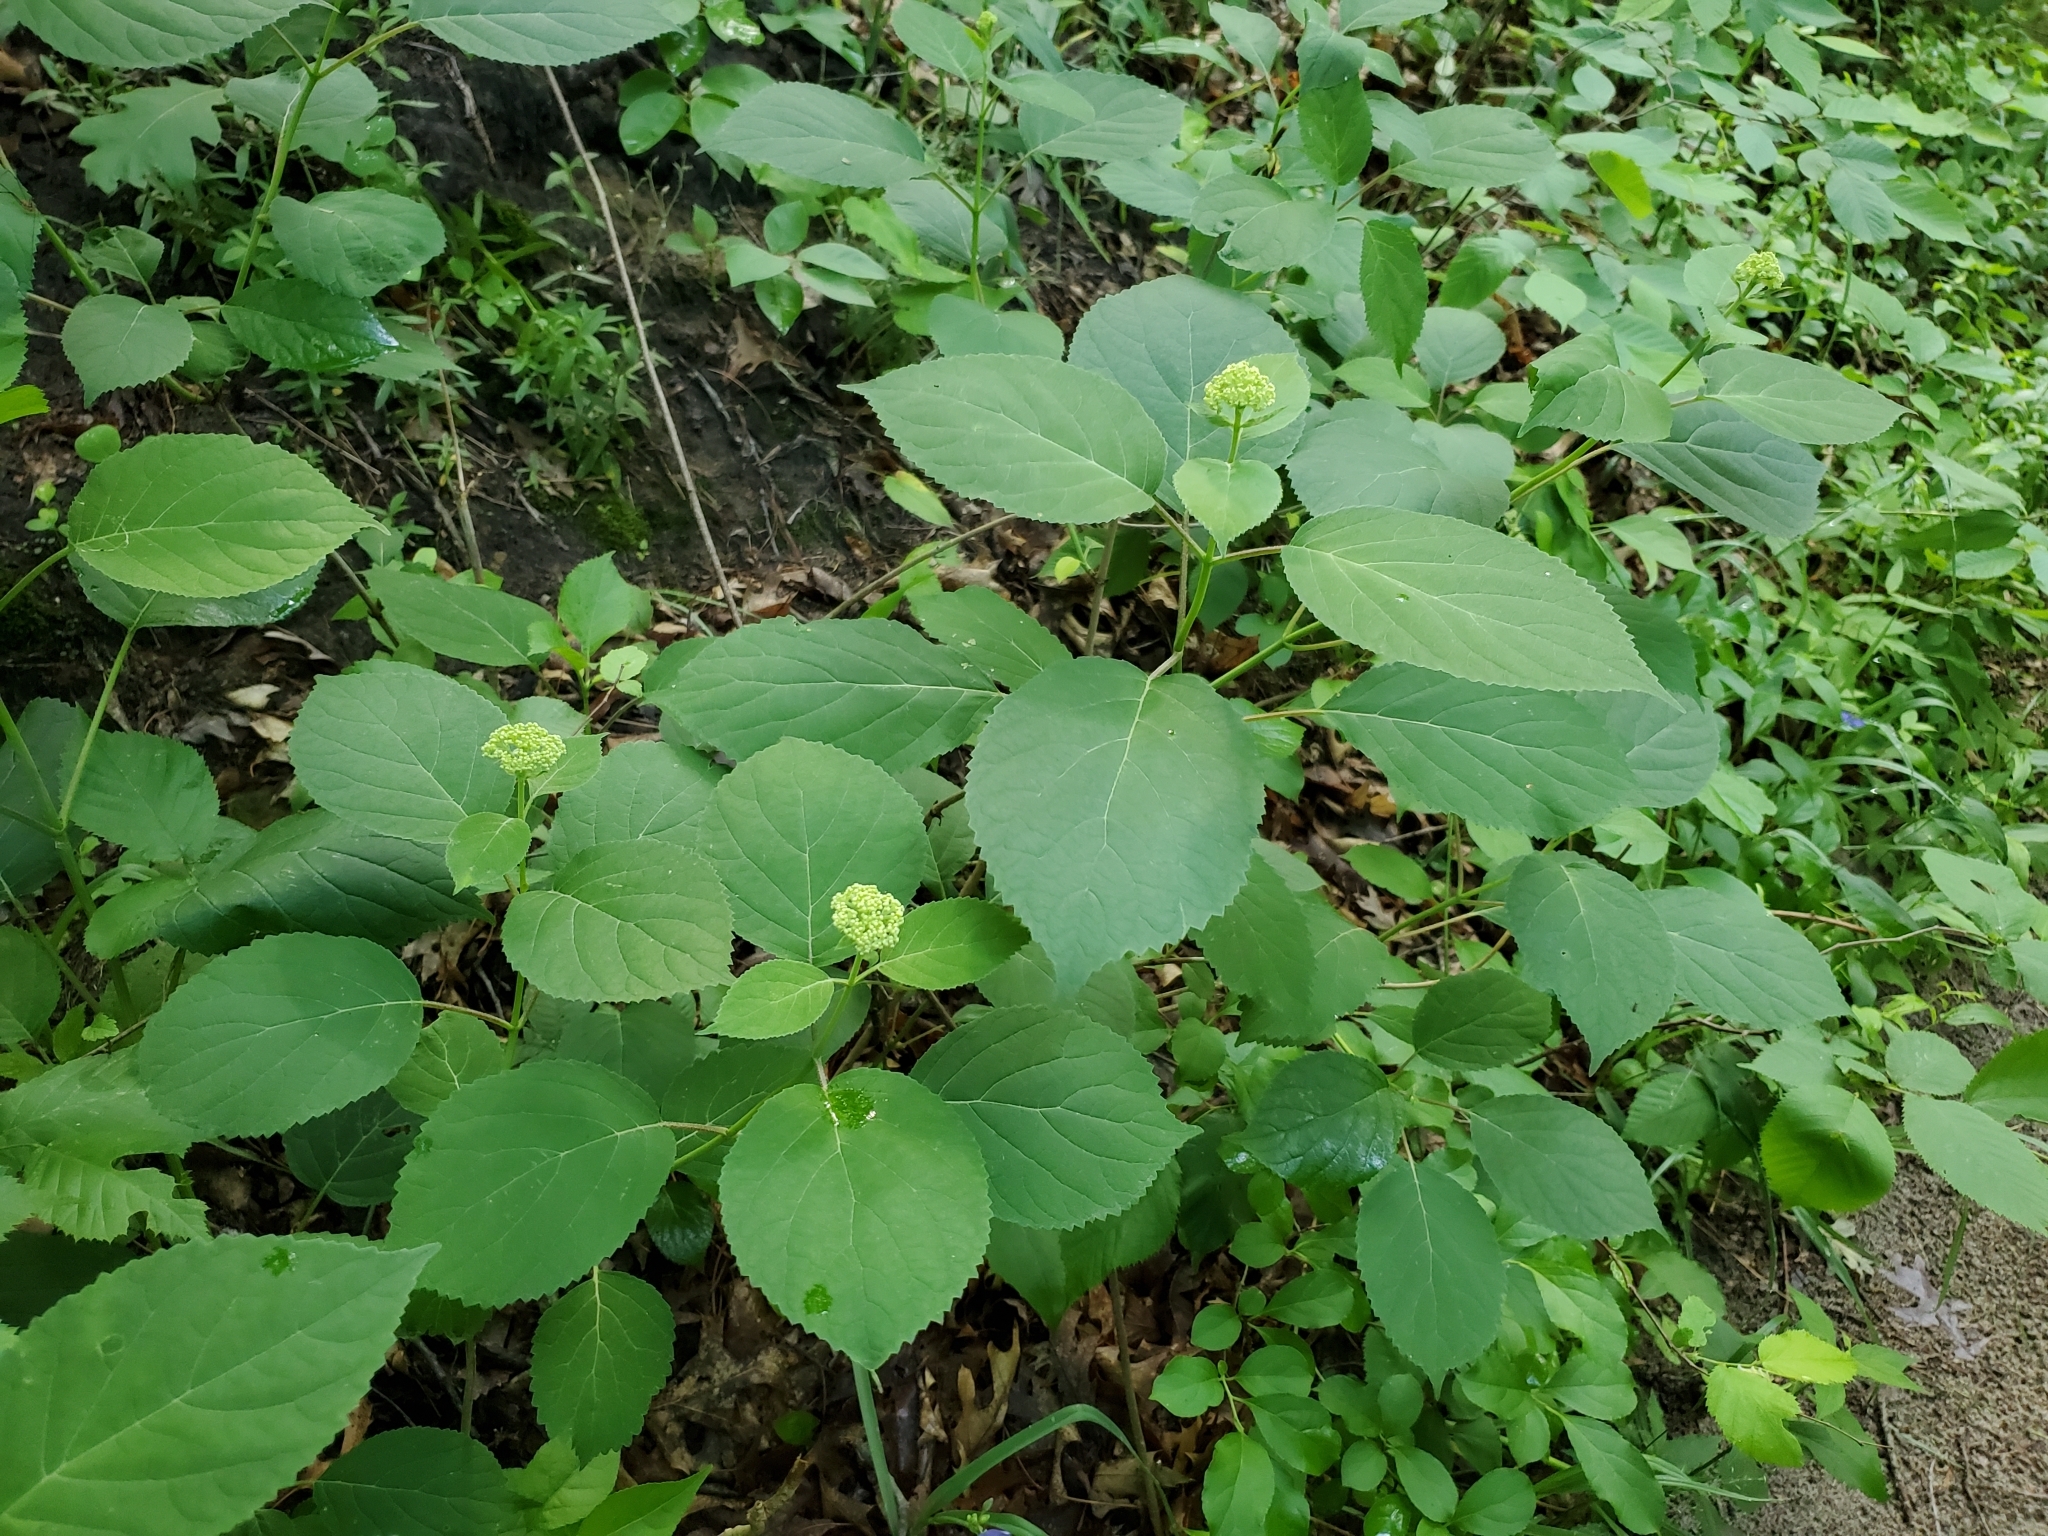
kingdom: Plantae
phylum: Tracheophyta
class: Magnoliopsida
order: Cornales
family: Hydrangeaceae
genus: Hydrangea
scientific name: Hydrangea arborescens
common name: Sevenbark
